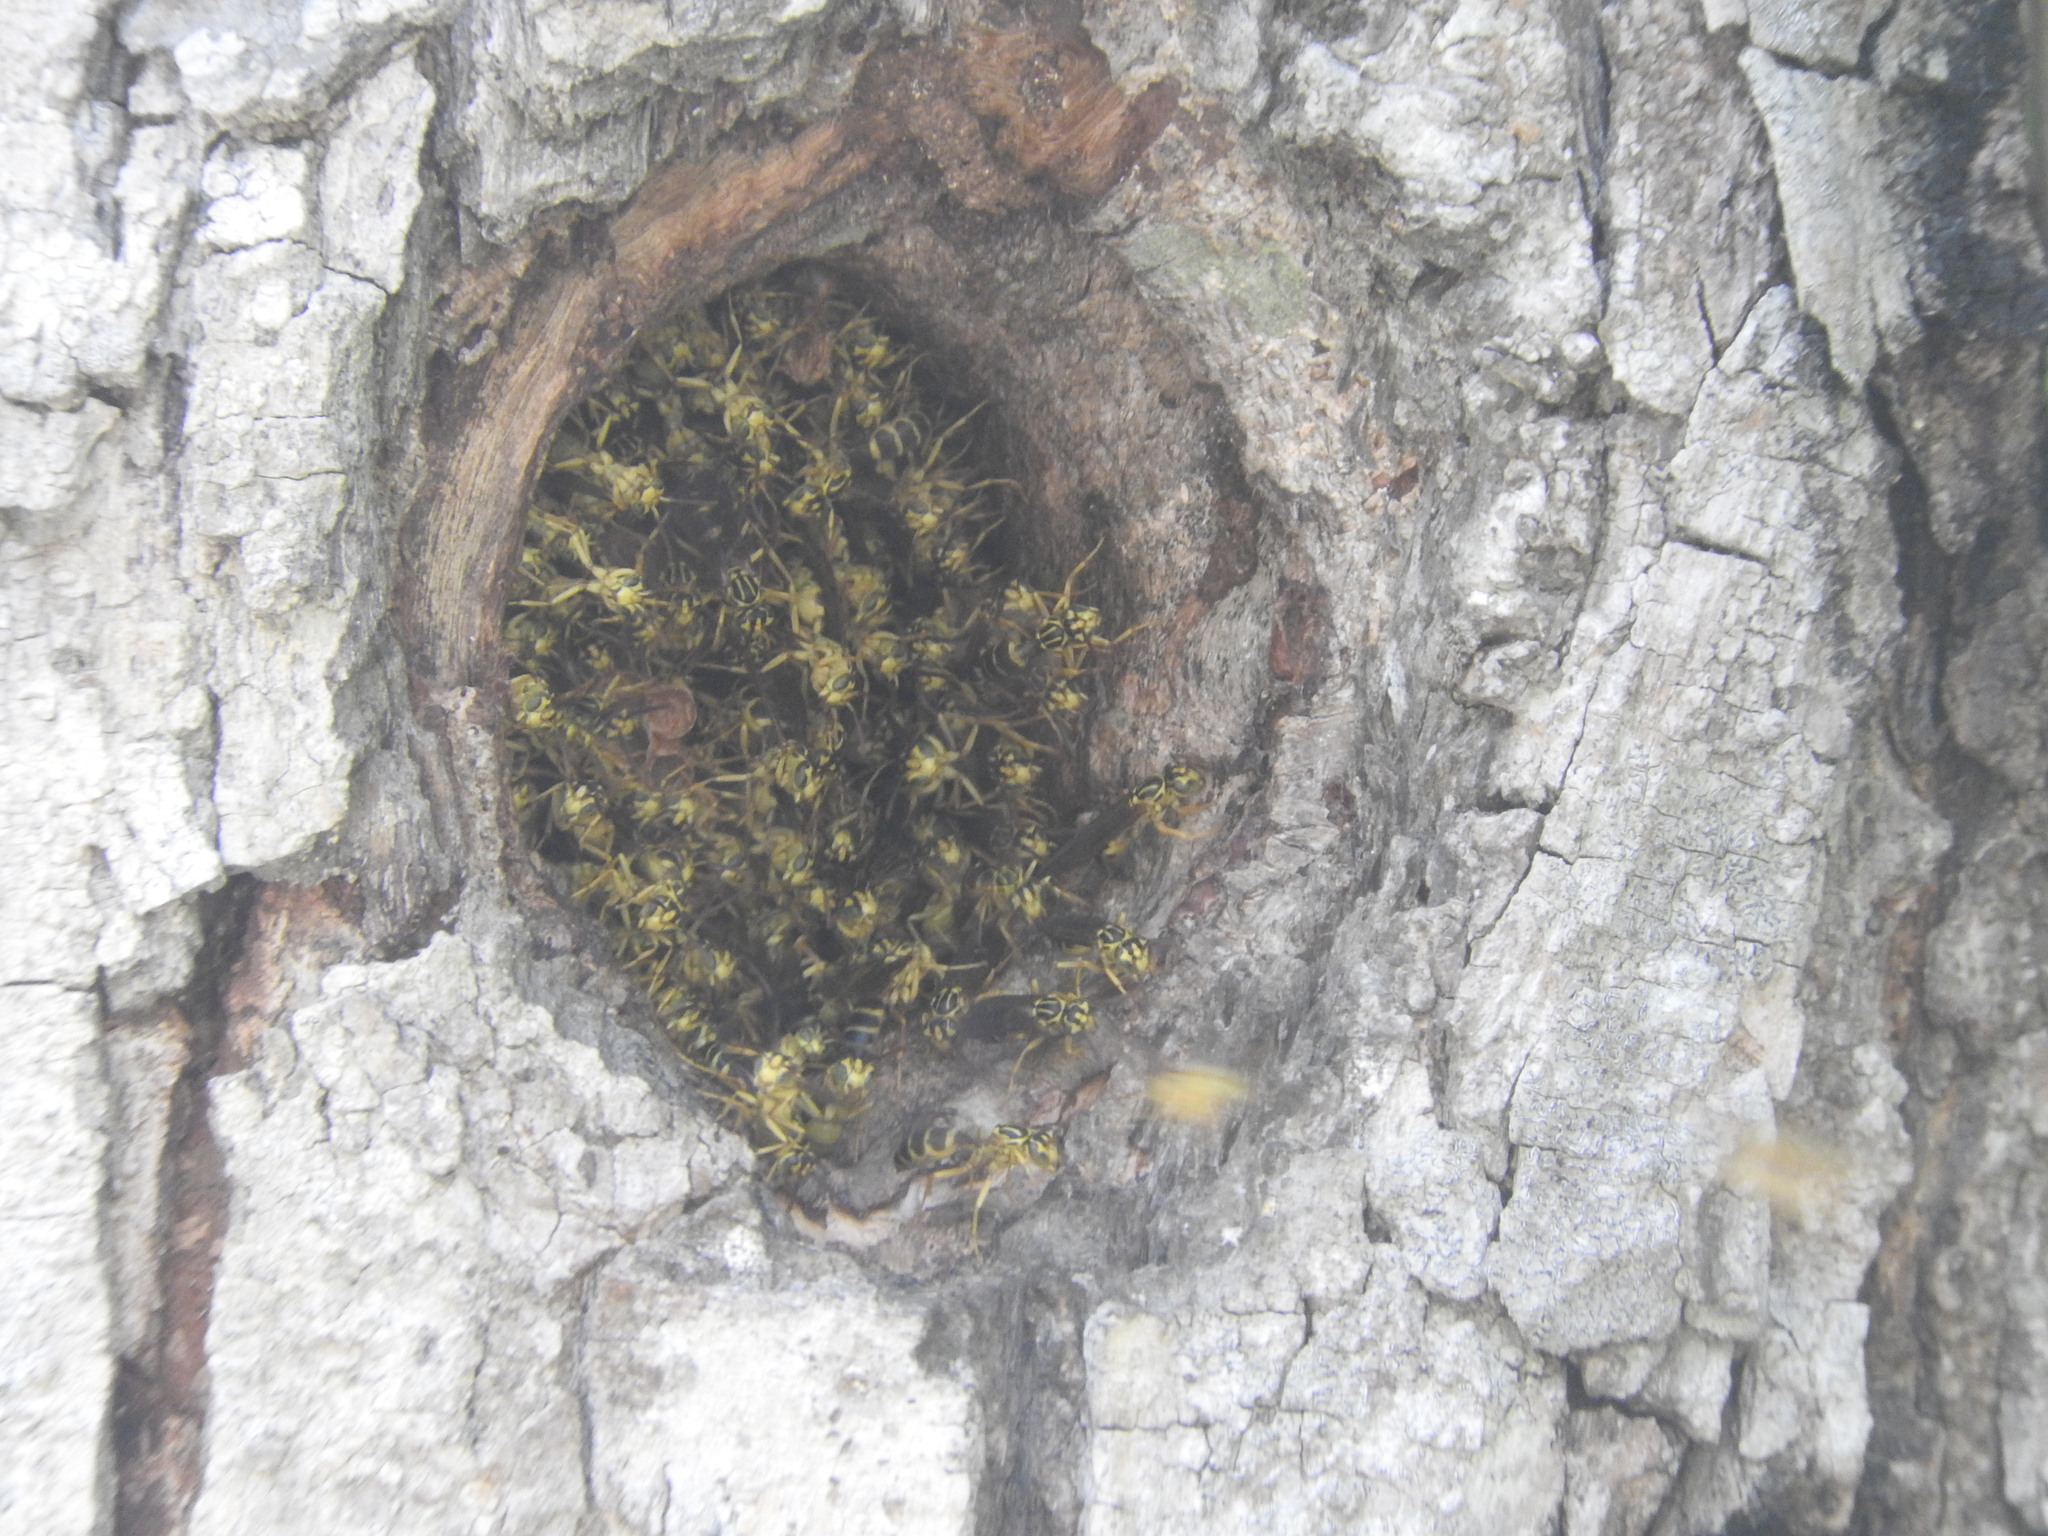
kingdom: Animalia
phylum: Arthropoda
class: Insecta
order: Hymenoptera
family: Vespidae
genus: Agelaia
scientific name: Agelaia yepocapa
